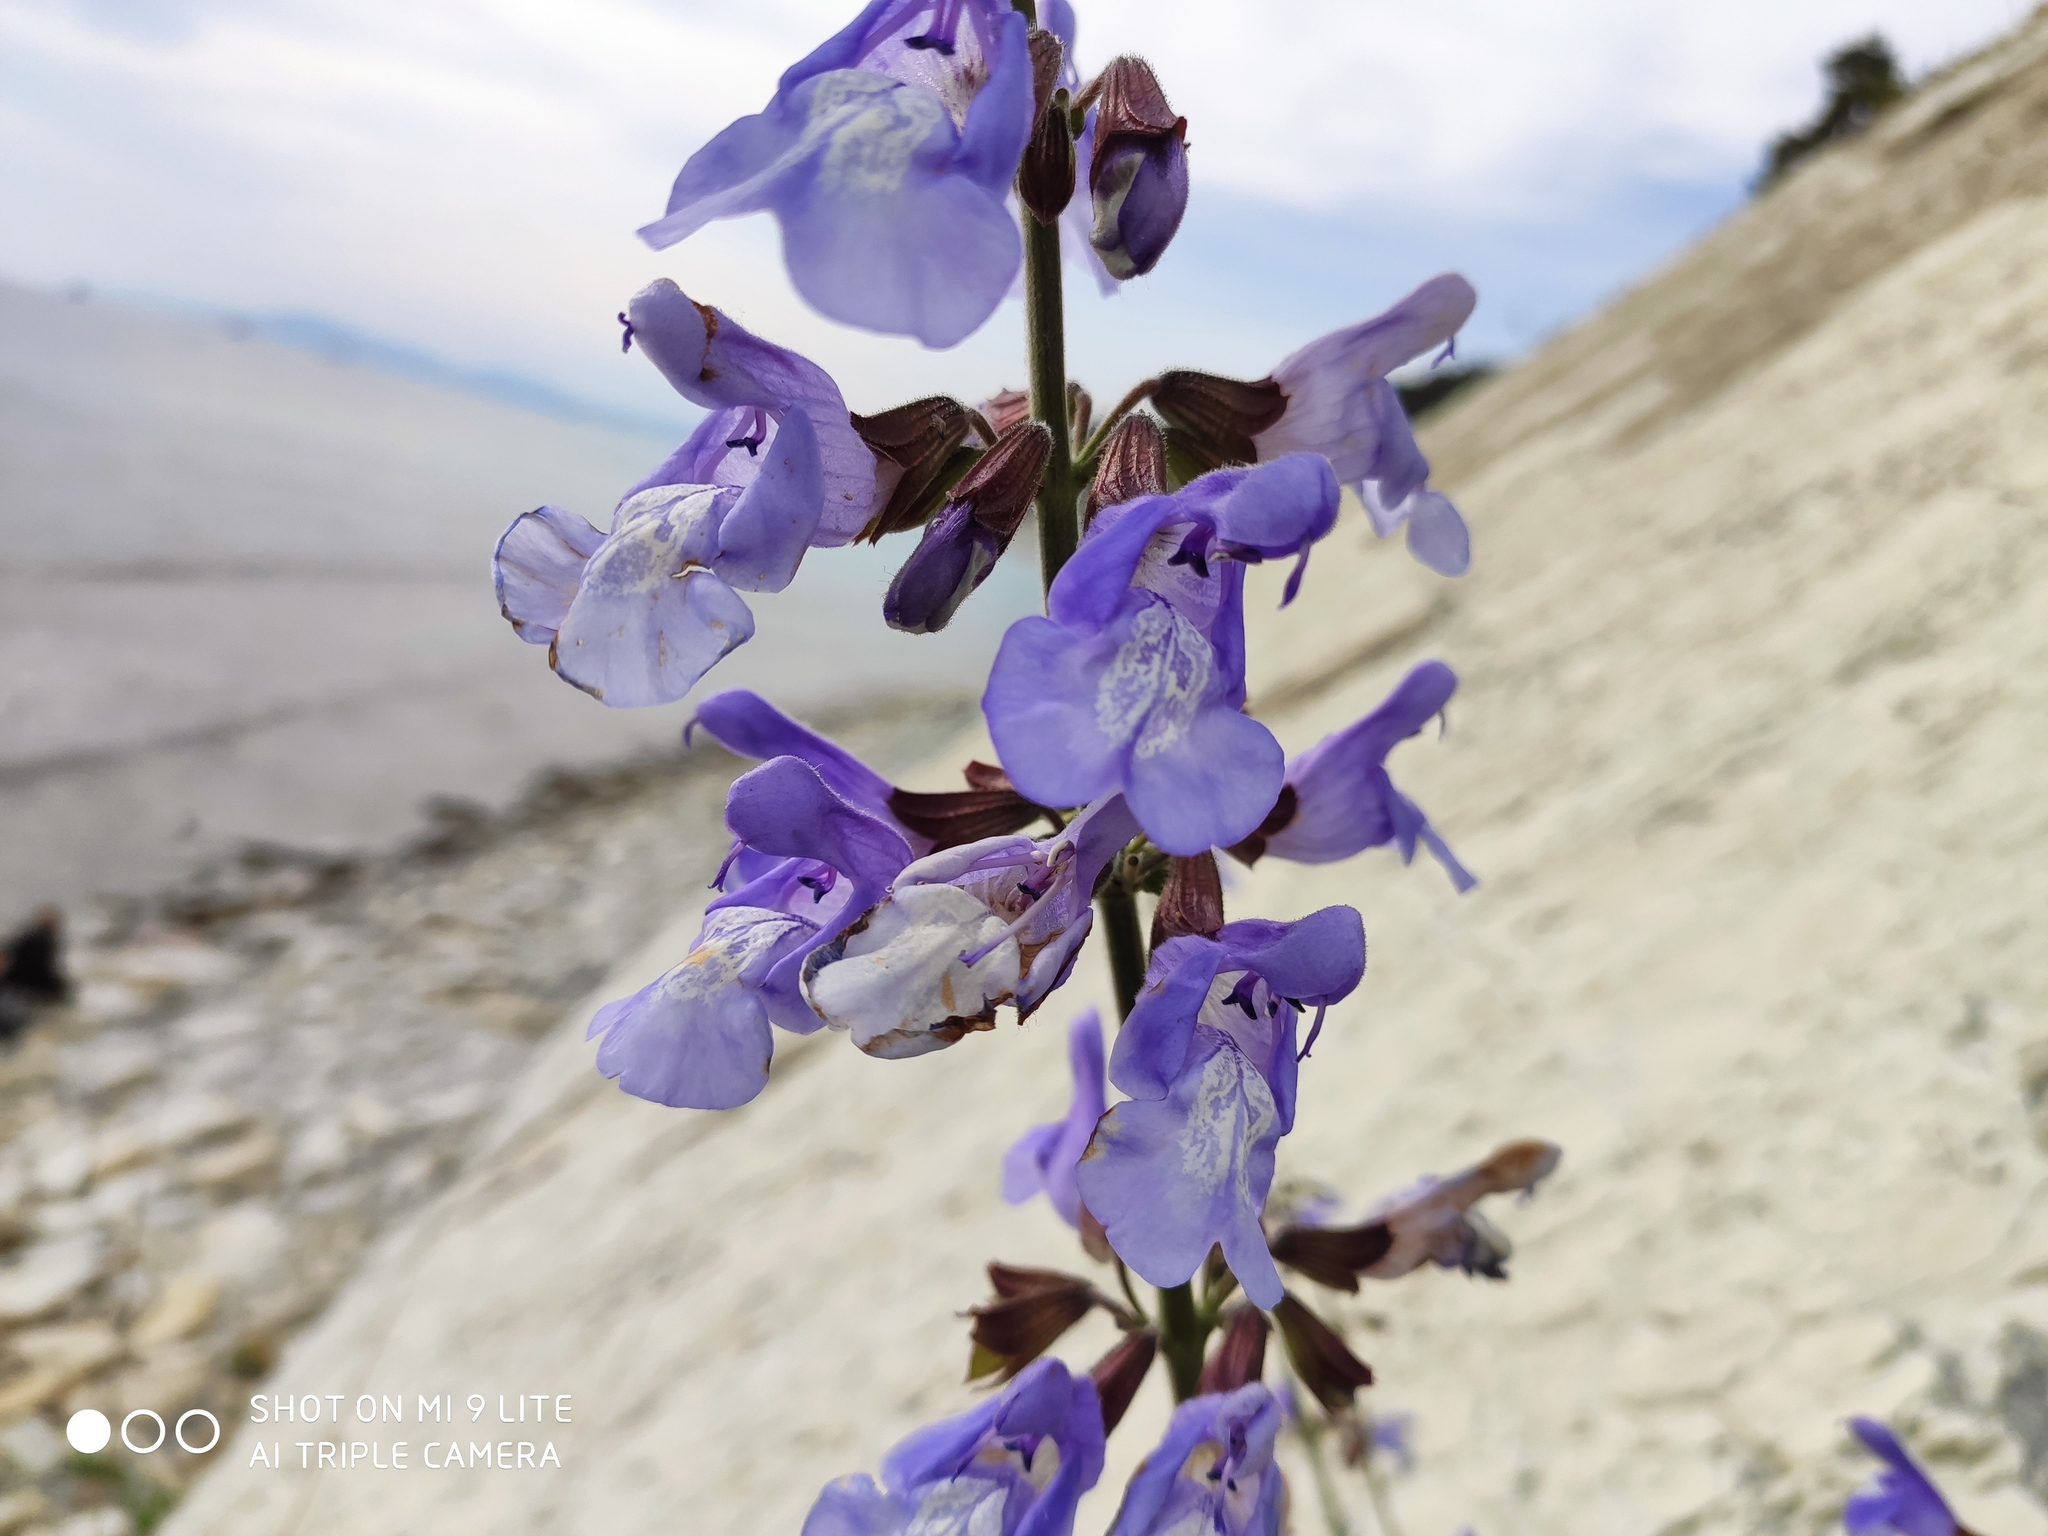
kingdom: Plantae
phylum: Tracheophyta
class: Magnoliopsida
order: Lamiales
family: Lamiaceae
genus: Salvia
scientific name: Salvia ringens
